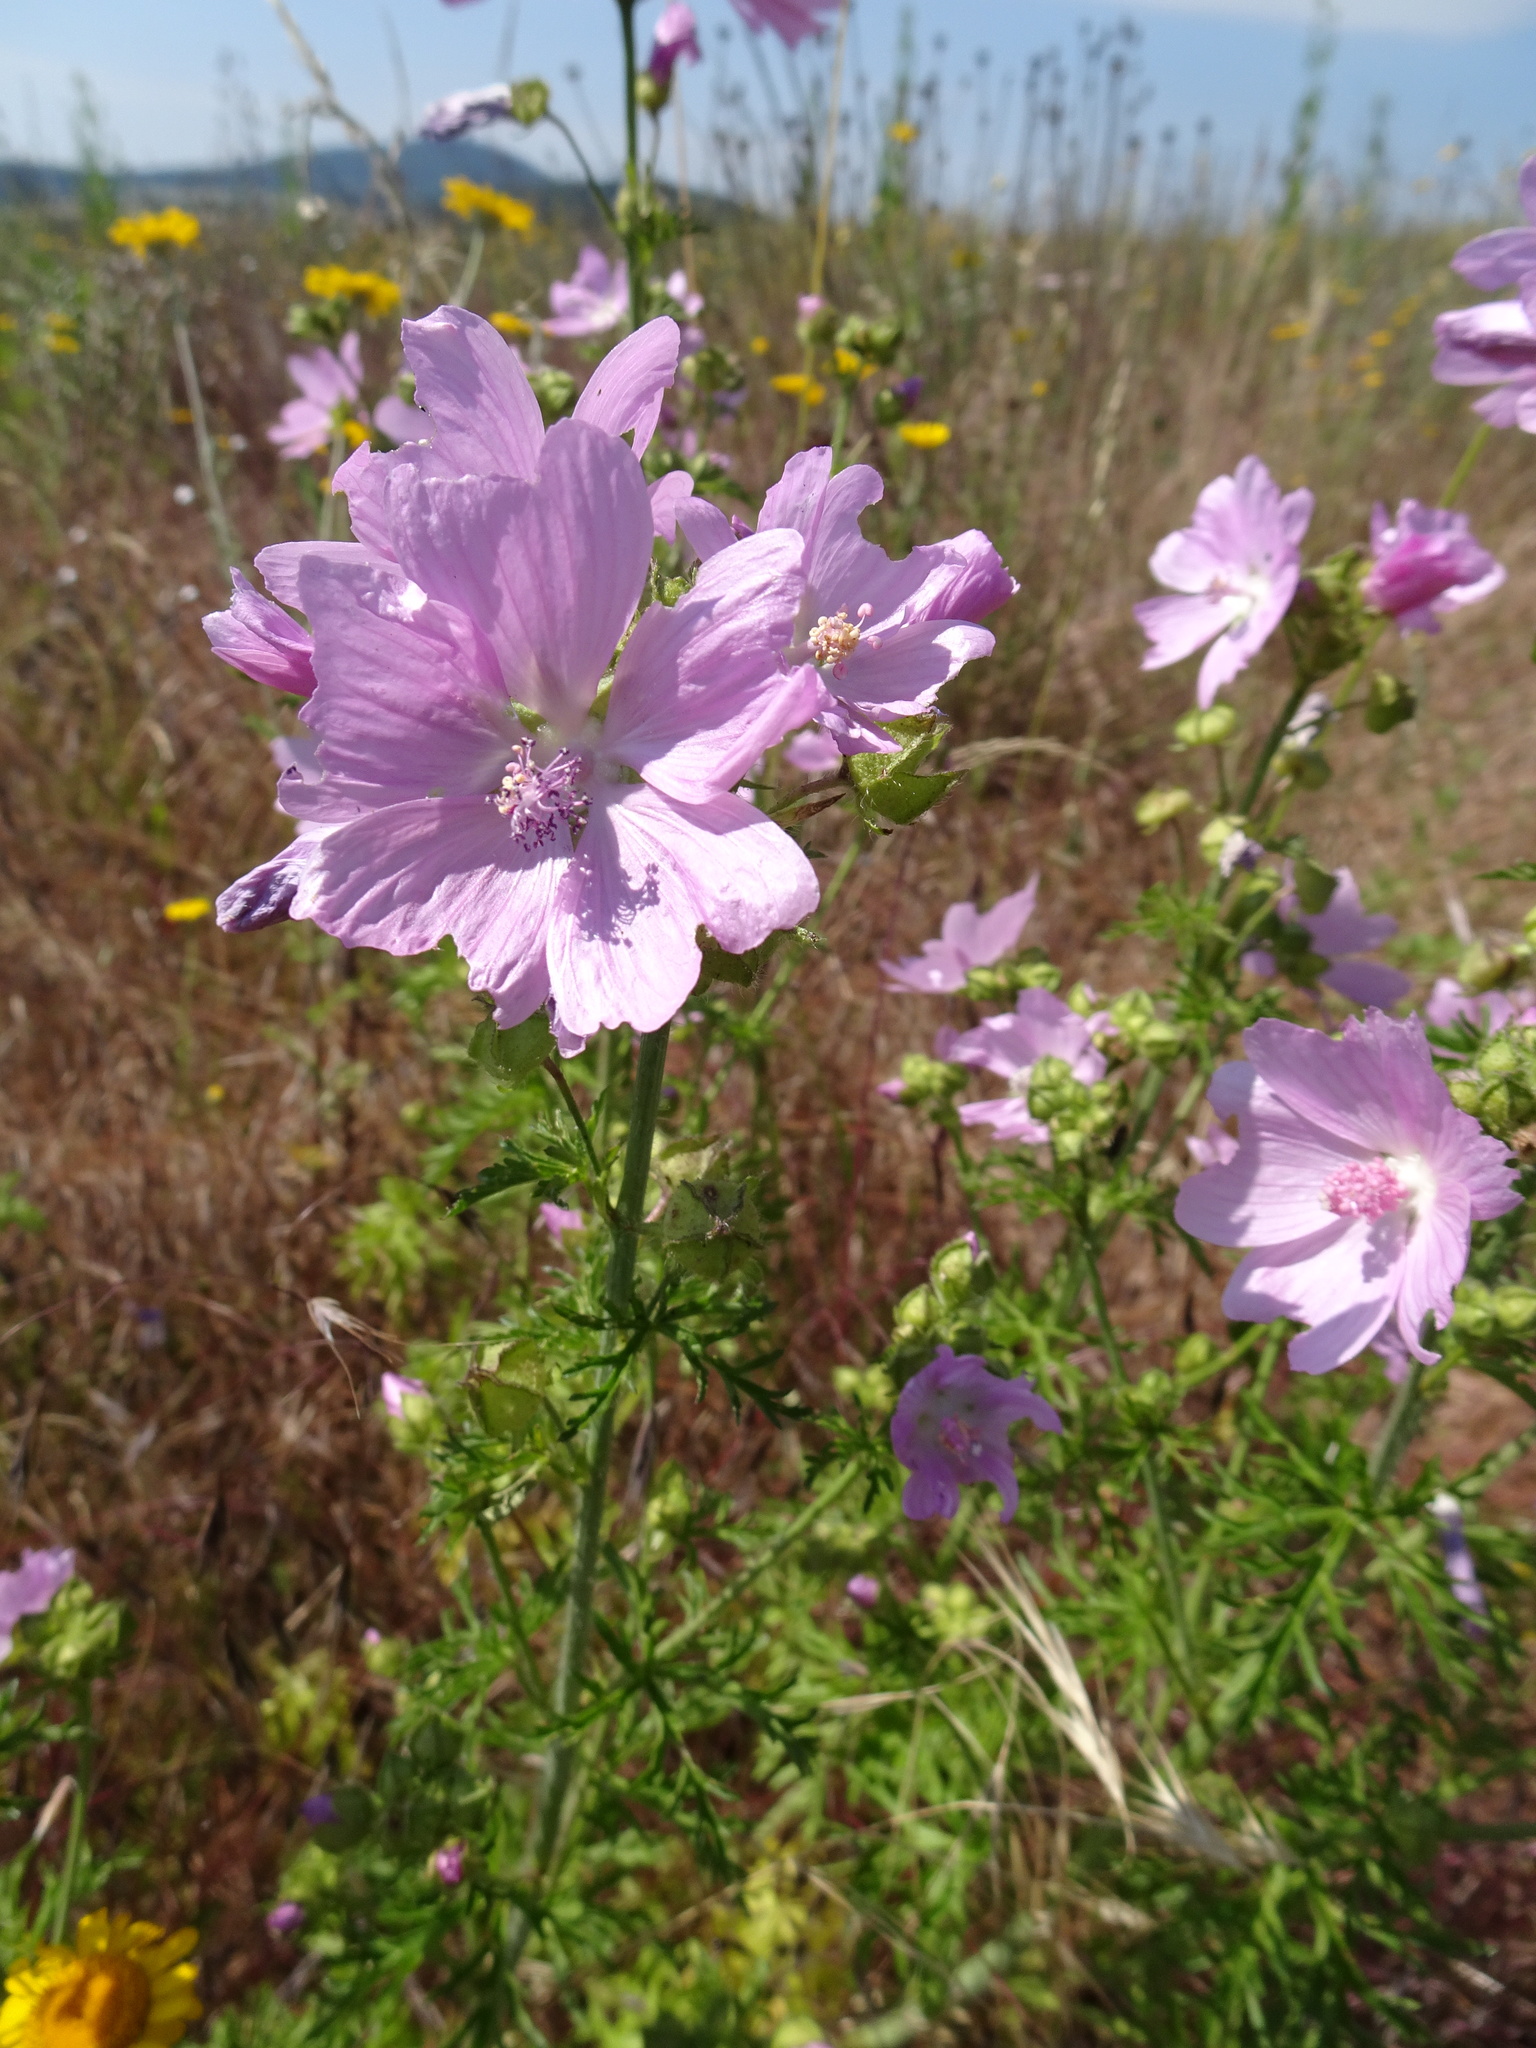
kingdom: Plantae
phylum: Tracheophyta
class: Magnoliopsida
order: Malvales
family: Malvaceae
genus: Malva
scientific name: Malva moschata
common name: Musk mallow
